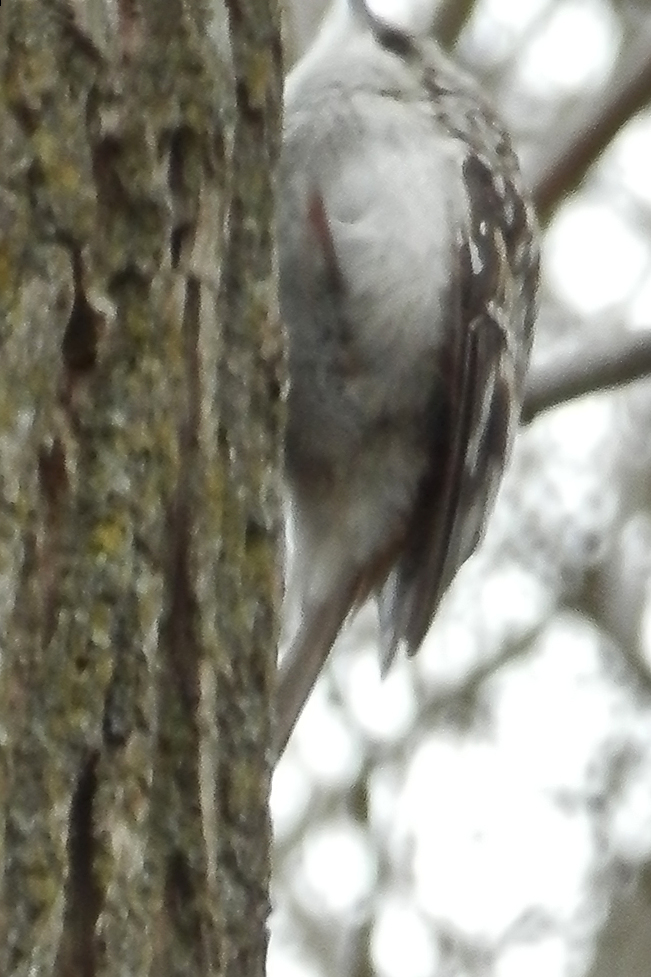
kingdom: Animalia
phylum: Chordata
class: Aves
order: Passeriformes
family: Certhiidae
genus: Certhia
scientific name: Certhia americana
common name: Brown creeper
